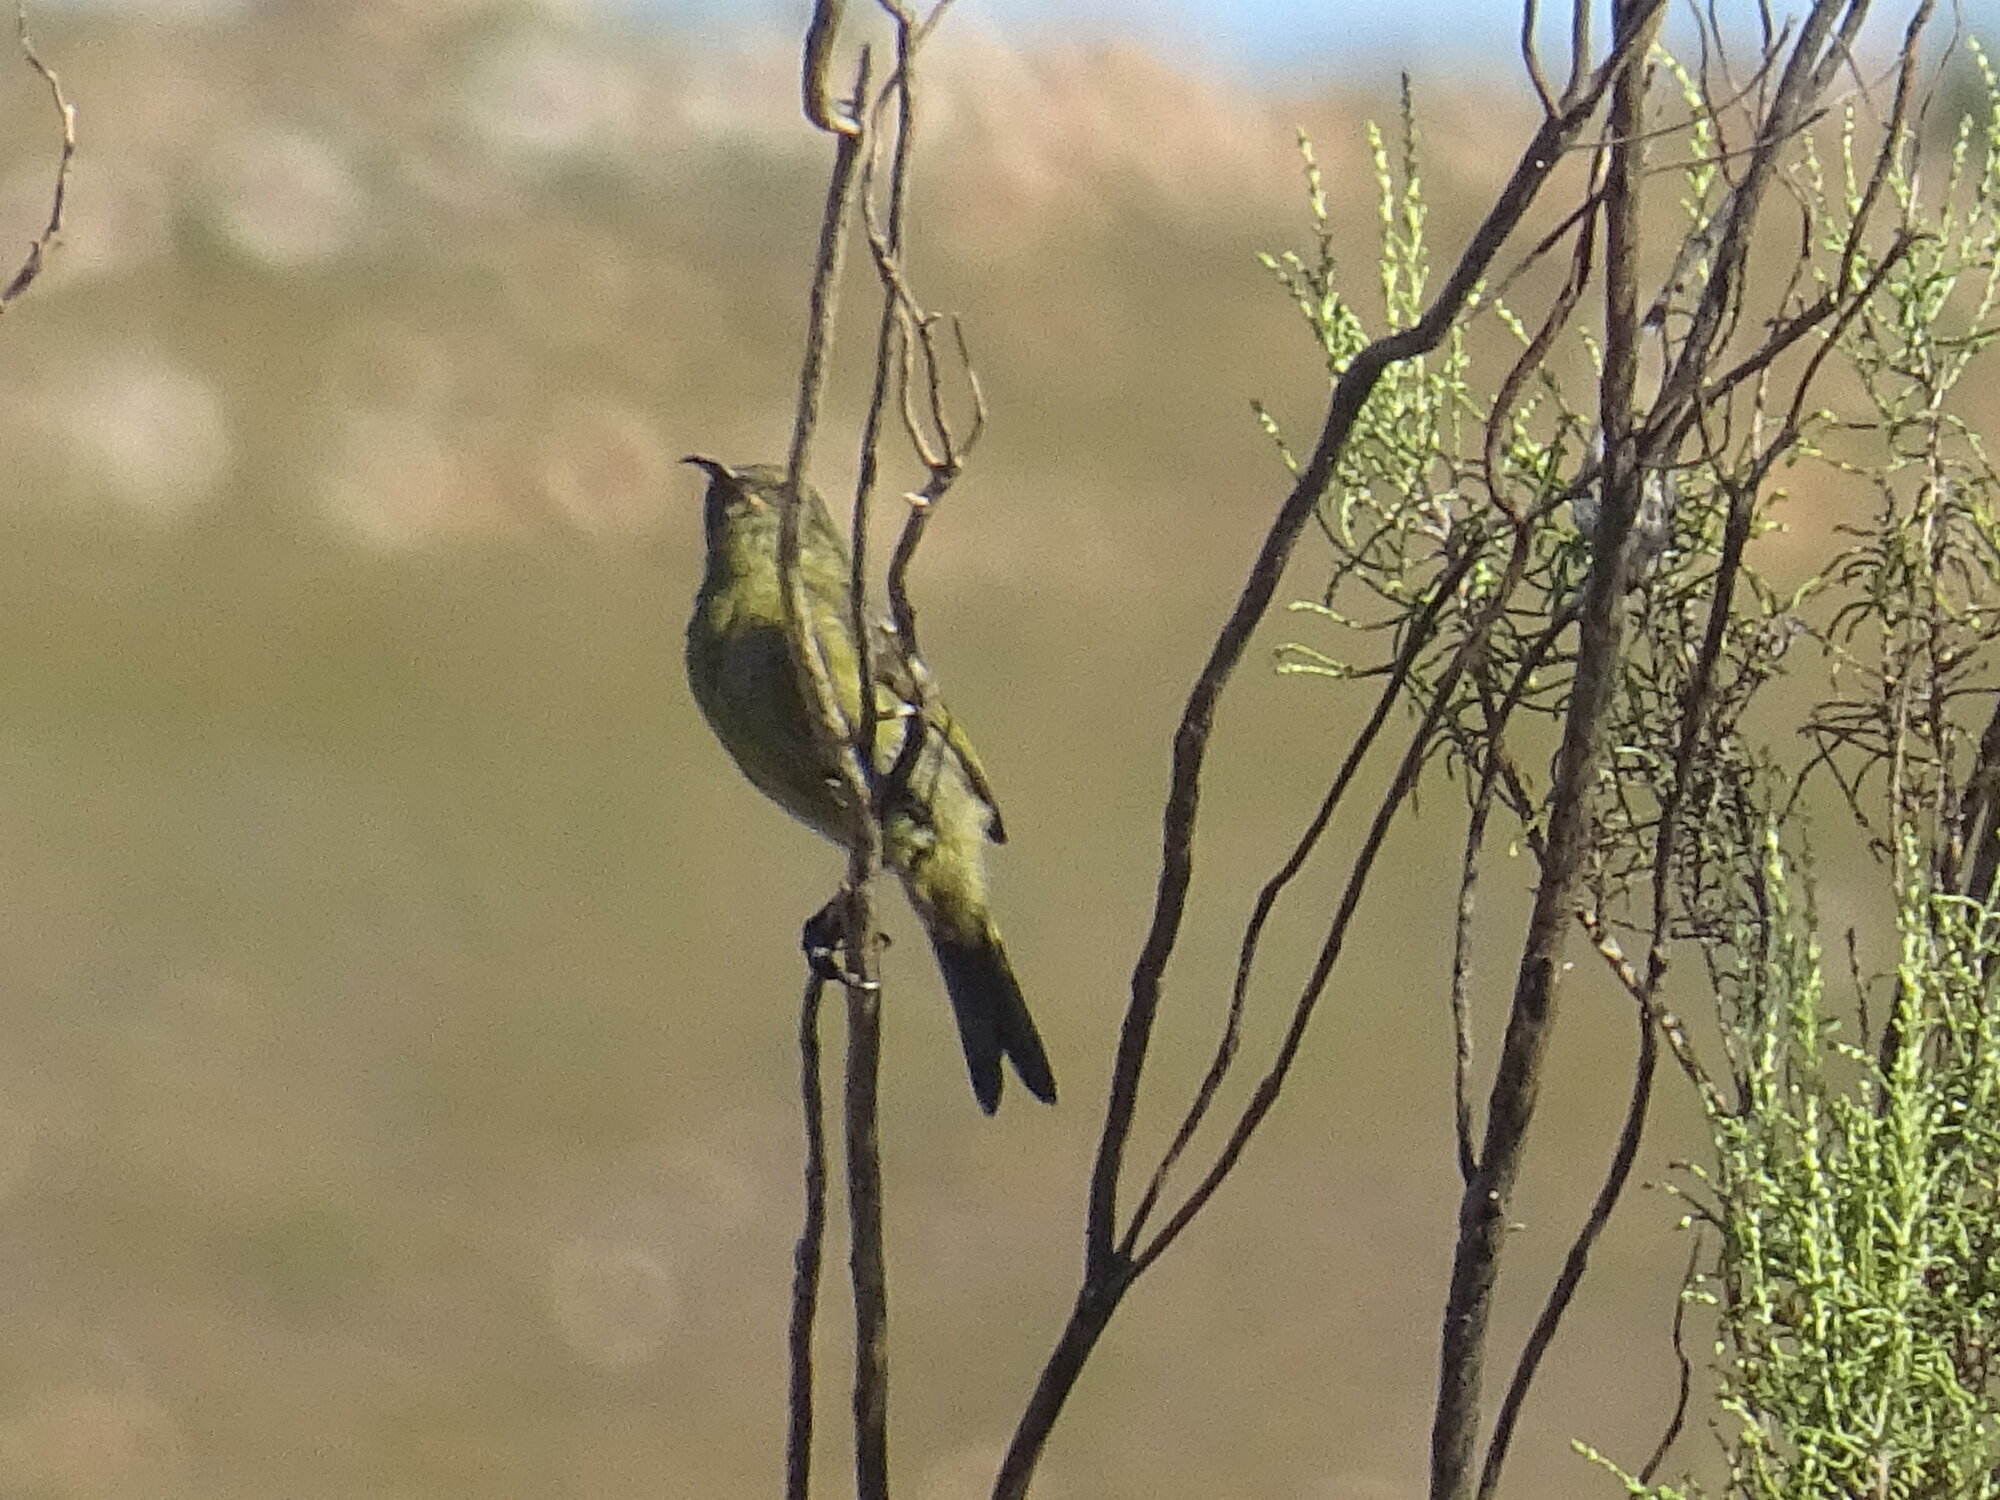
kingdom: Animalia
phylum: Chordata
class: Aves
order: Passeriformes
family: Nectariniidae
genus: Anthobaphes
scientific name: Anthobaphes violacea
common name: Orange-breasted sunbird
